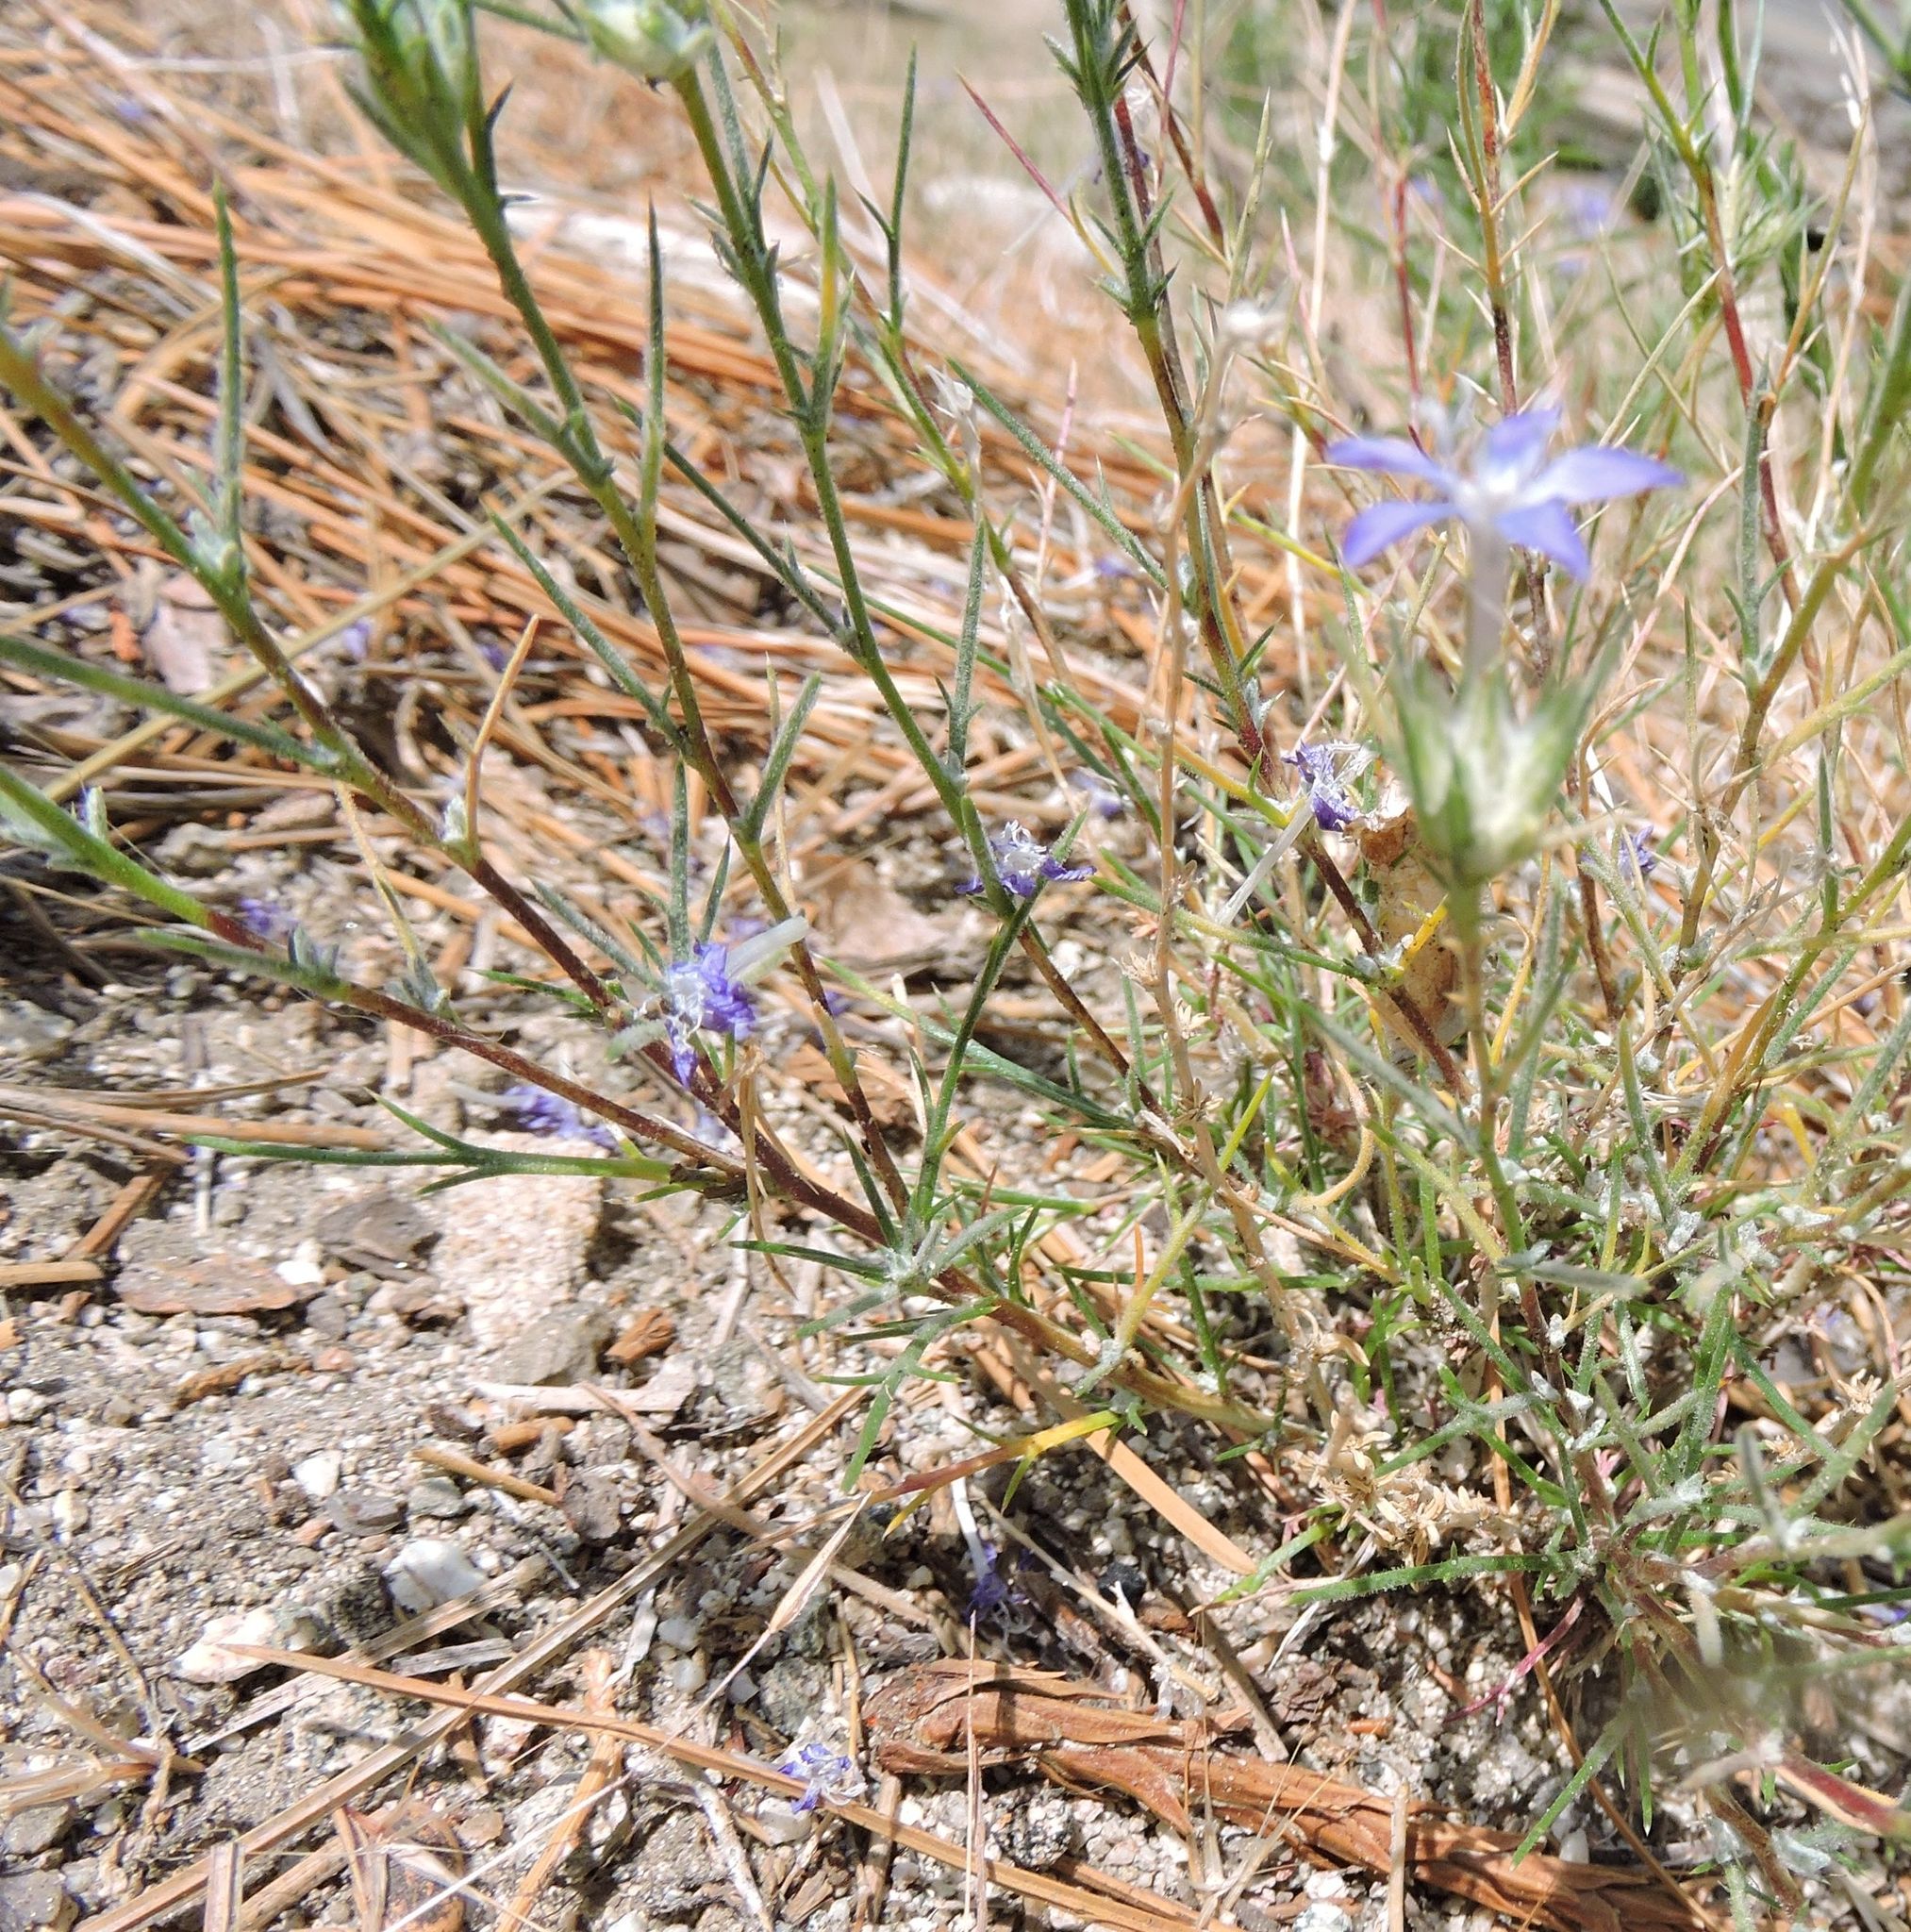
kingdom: Plantae
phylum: Tracheophyta
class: Magnoliopsida
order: Ericales
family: Polemoniaceae
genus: Eriastrum
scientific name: Eriastrum densifolium
